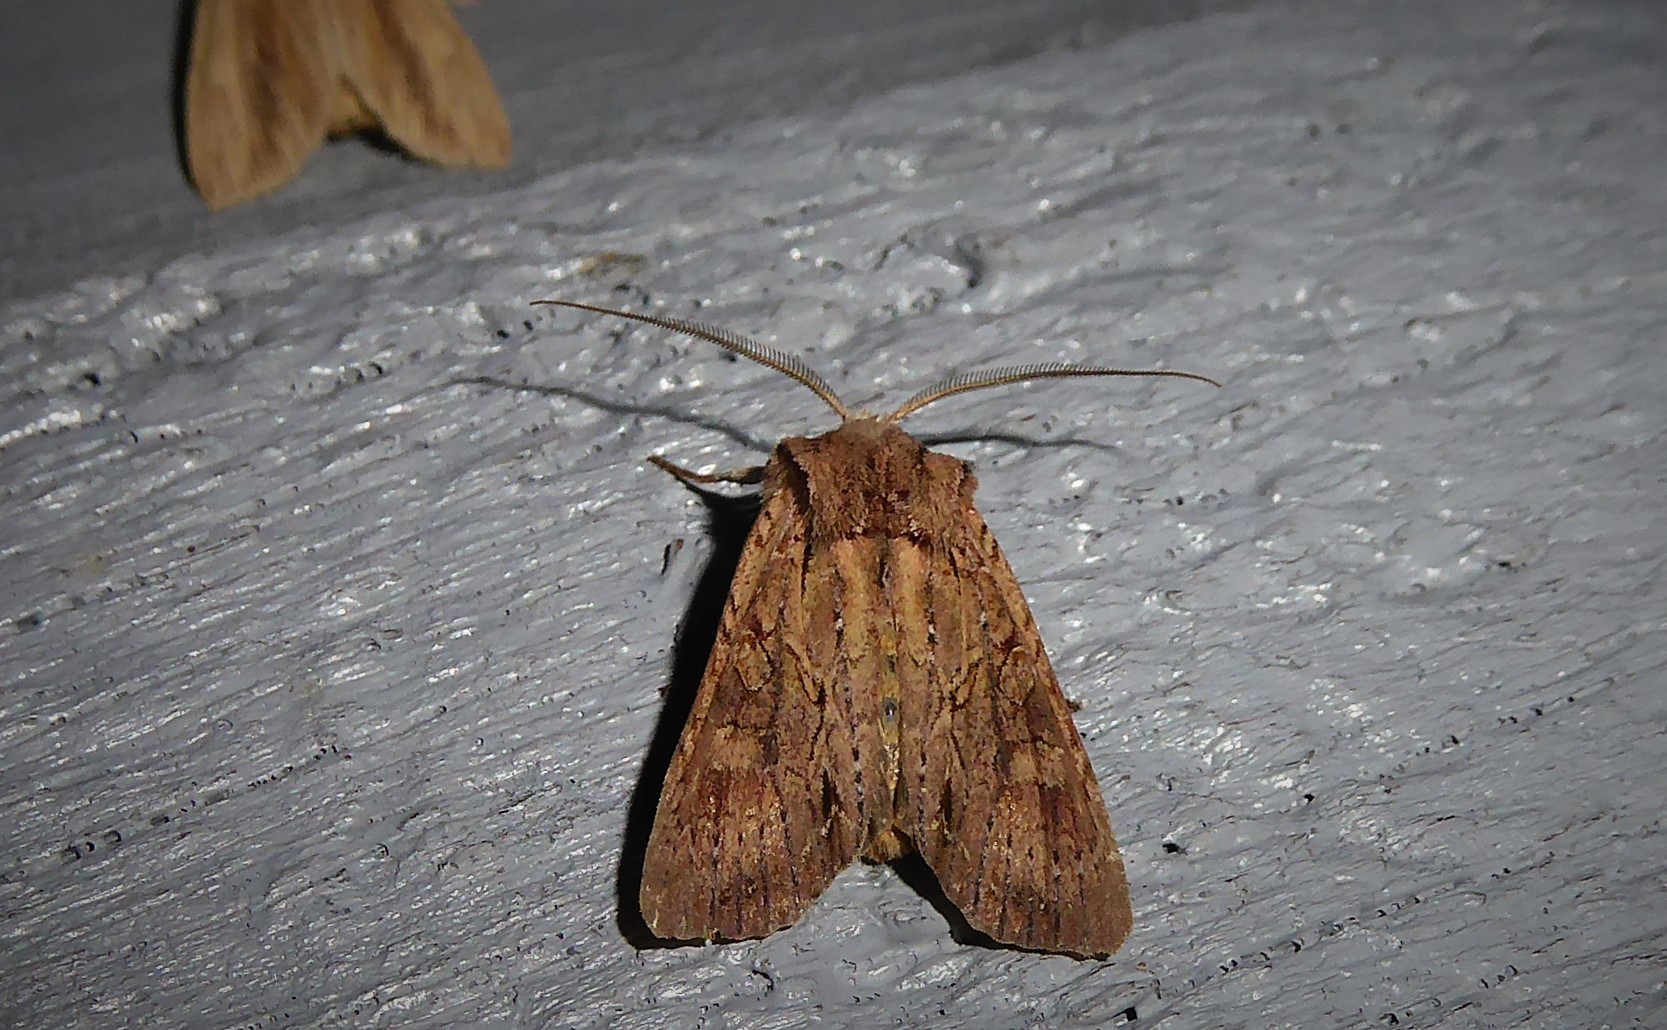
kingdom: Animalia
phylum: Arthropoda
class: Insecta
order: Lepidoptera
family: Noctuidae
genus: Ichneutica
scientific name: Ichneutica
